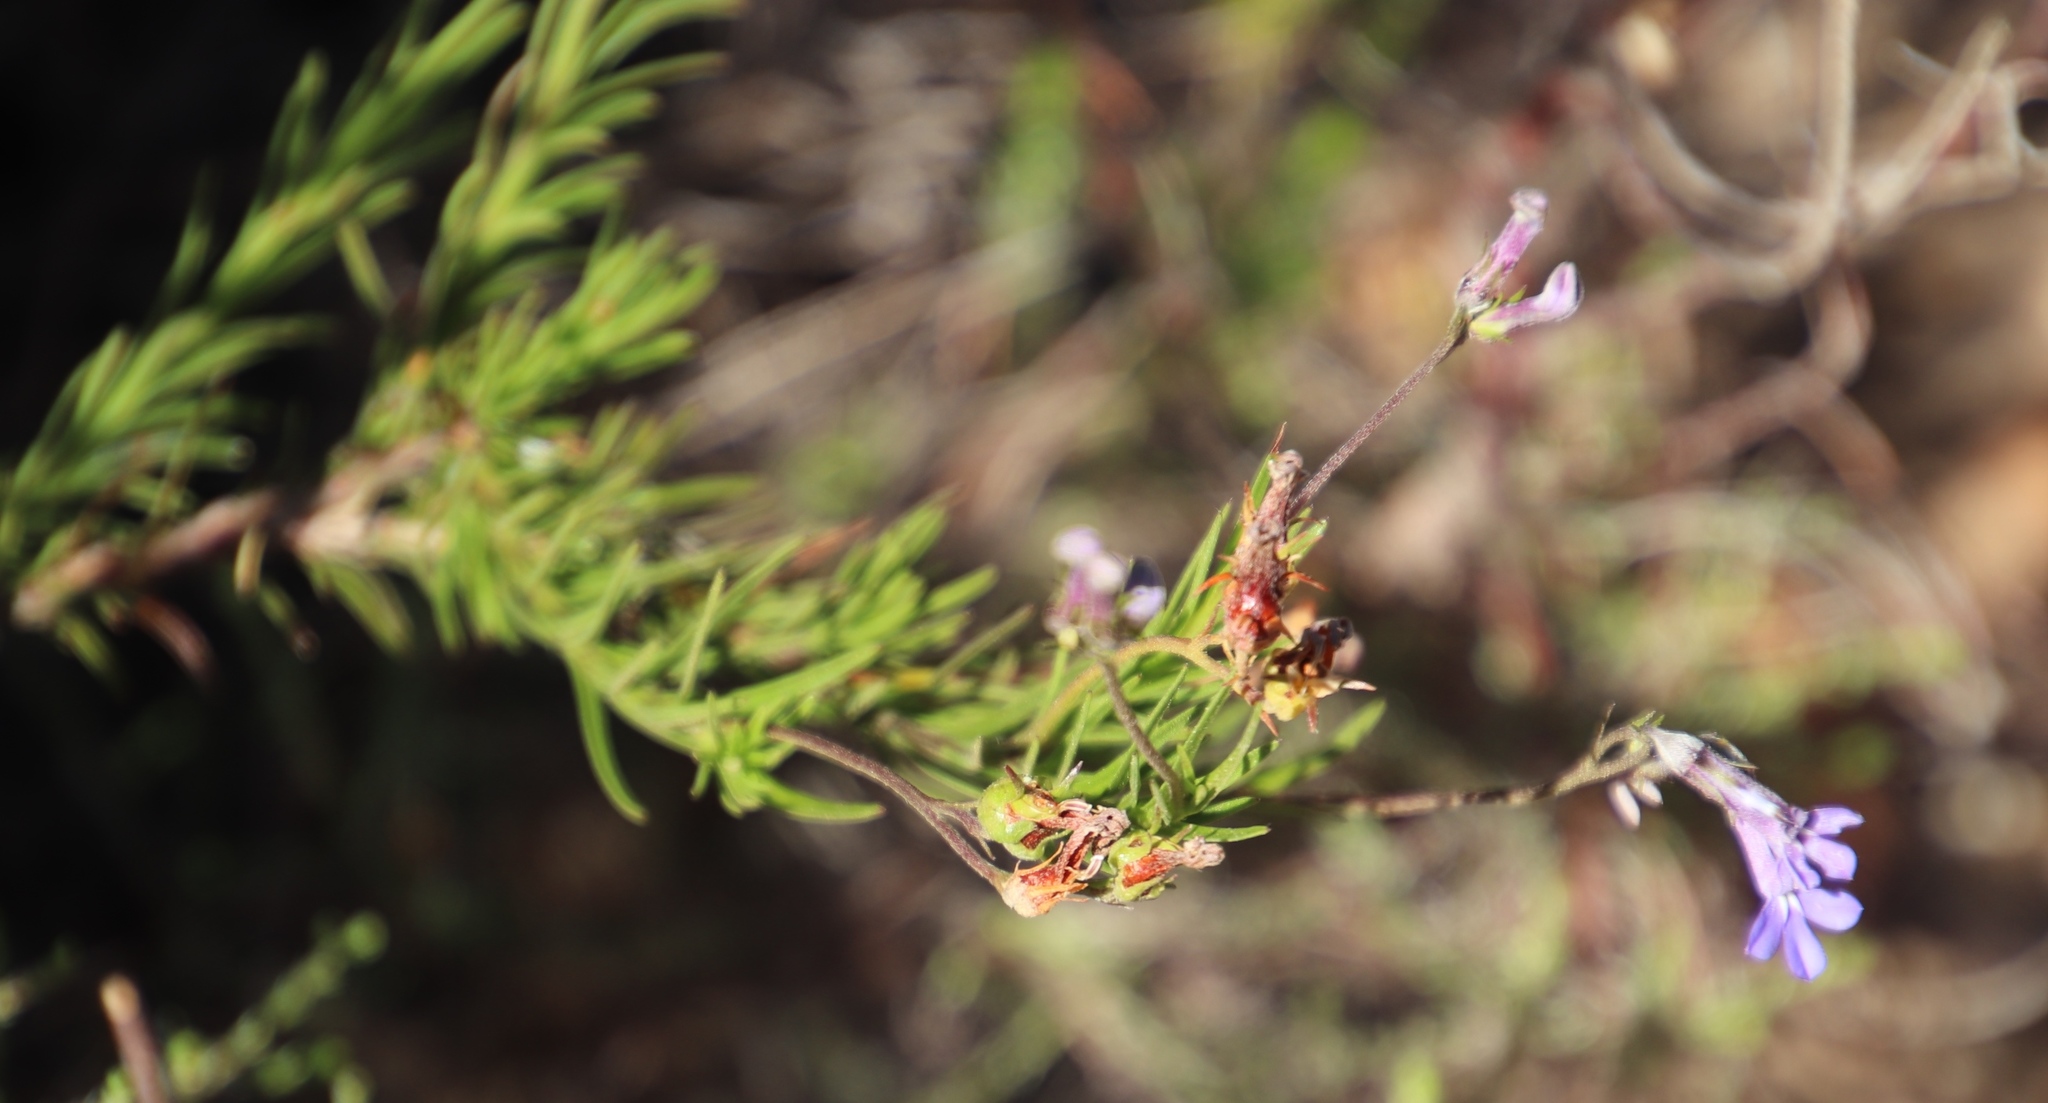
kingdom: Plantae
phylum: Tracheophyta
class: Magnoliopsida
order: Asterales
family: Campanulaceae
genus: Lobelia
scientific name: Lobelia pinifolia
